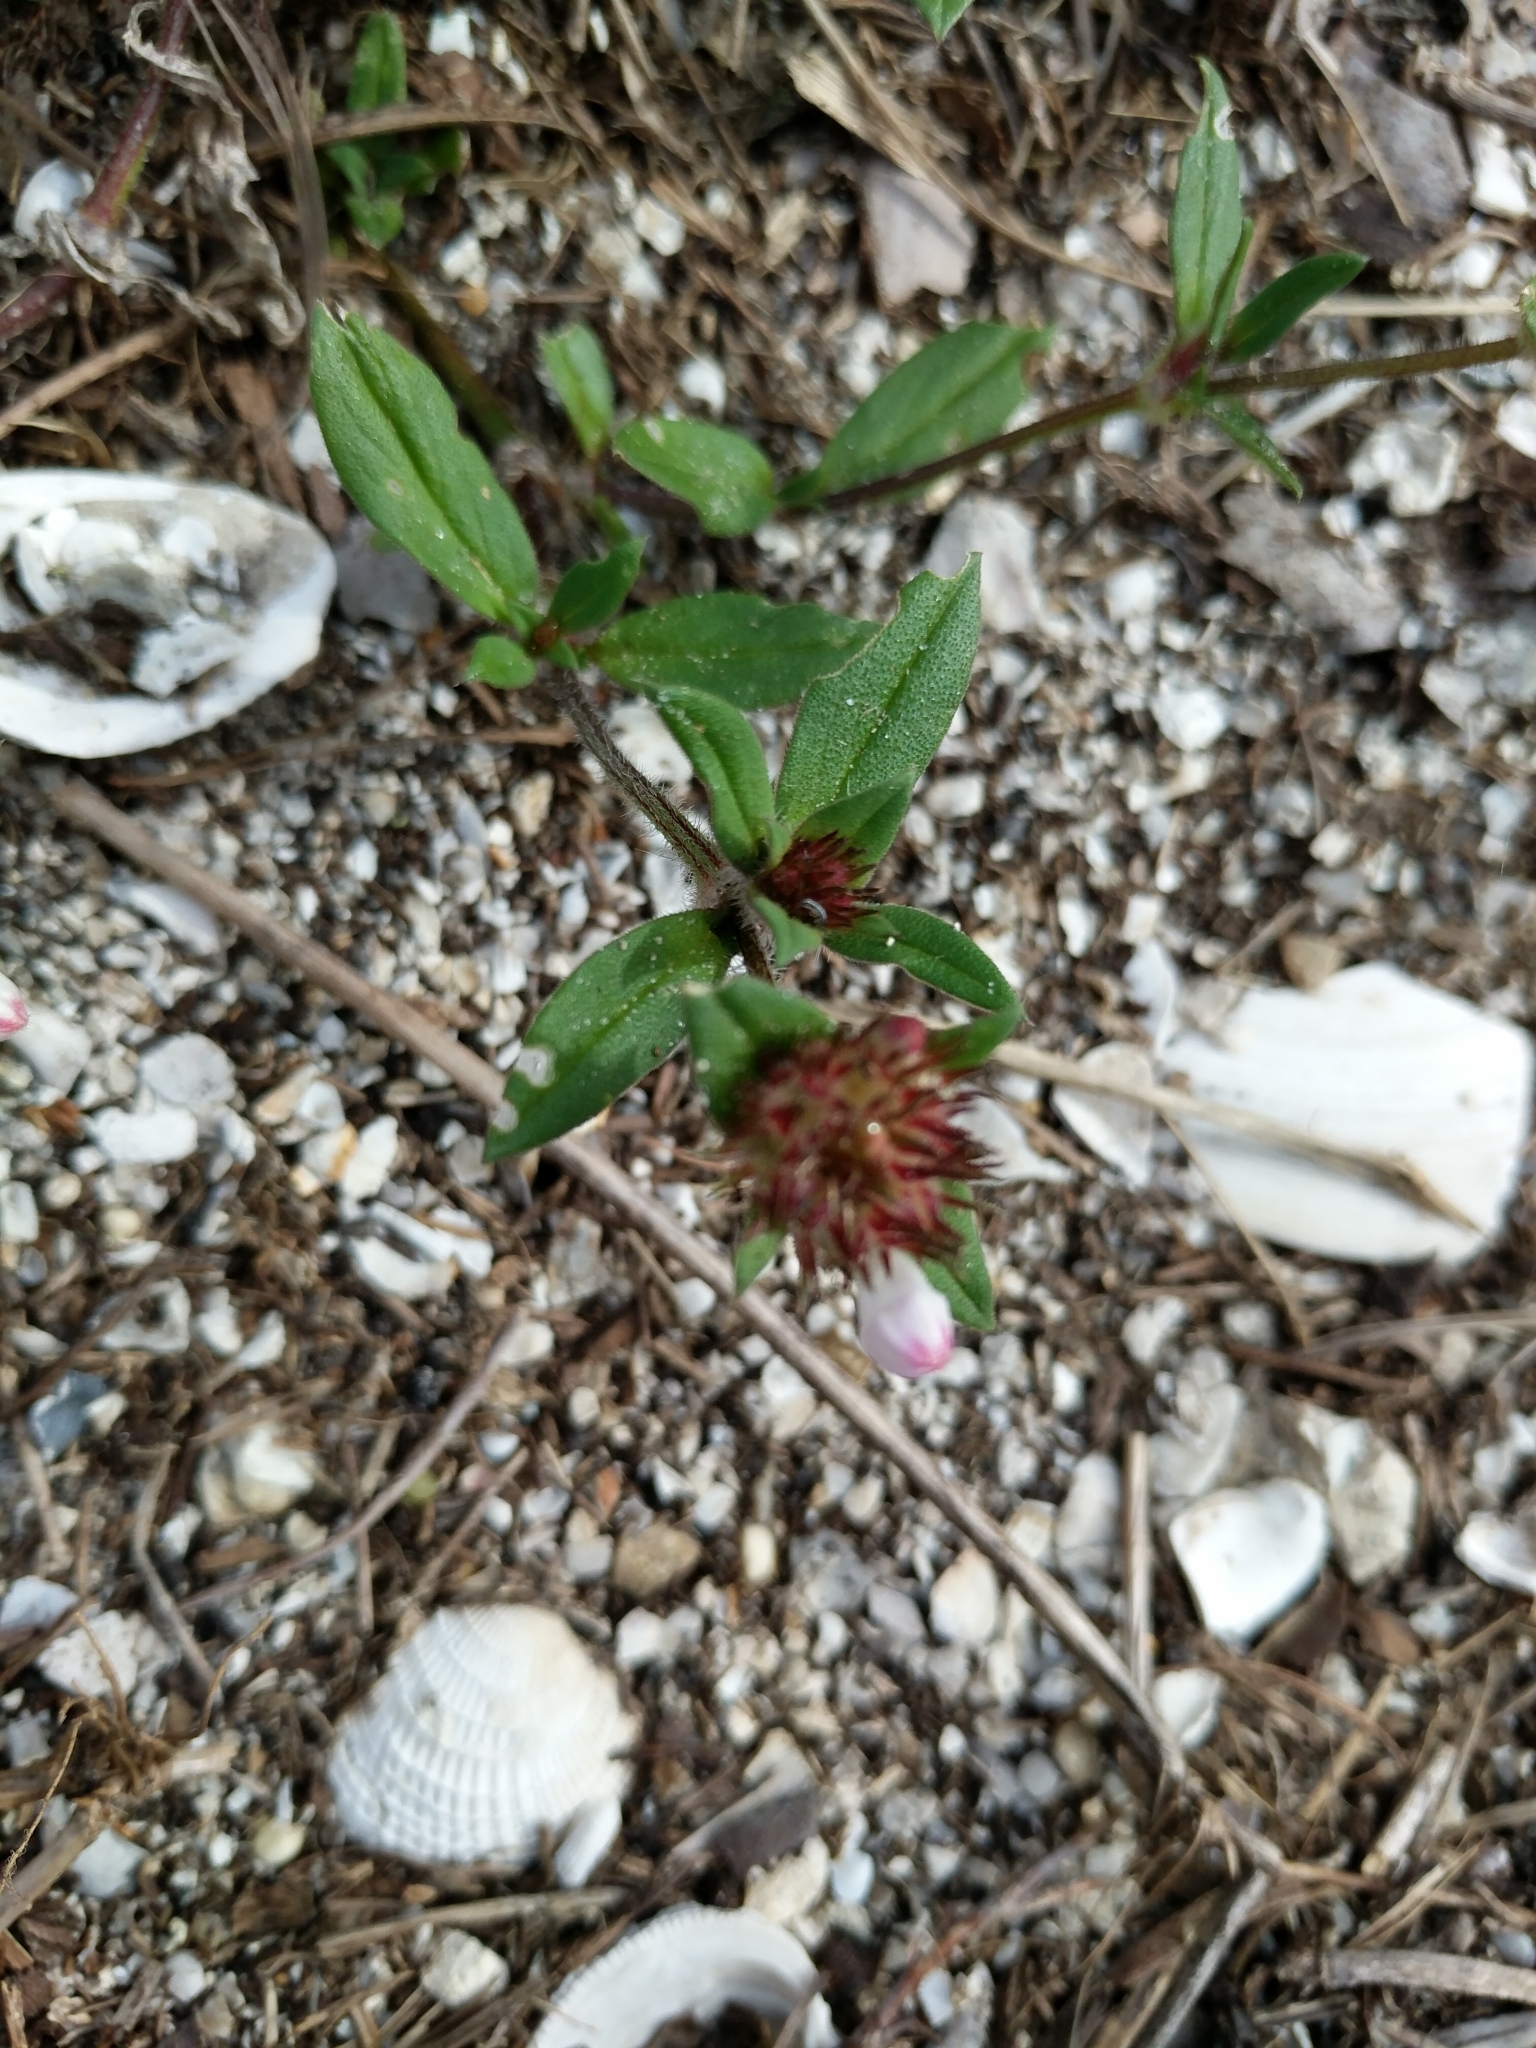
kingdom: Plantae
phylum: Tracheophyta
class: Magnoliopsida
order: Gentianales
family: Rubiaceae
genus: Richardia
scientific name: Richardia grandiflora
